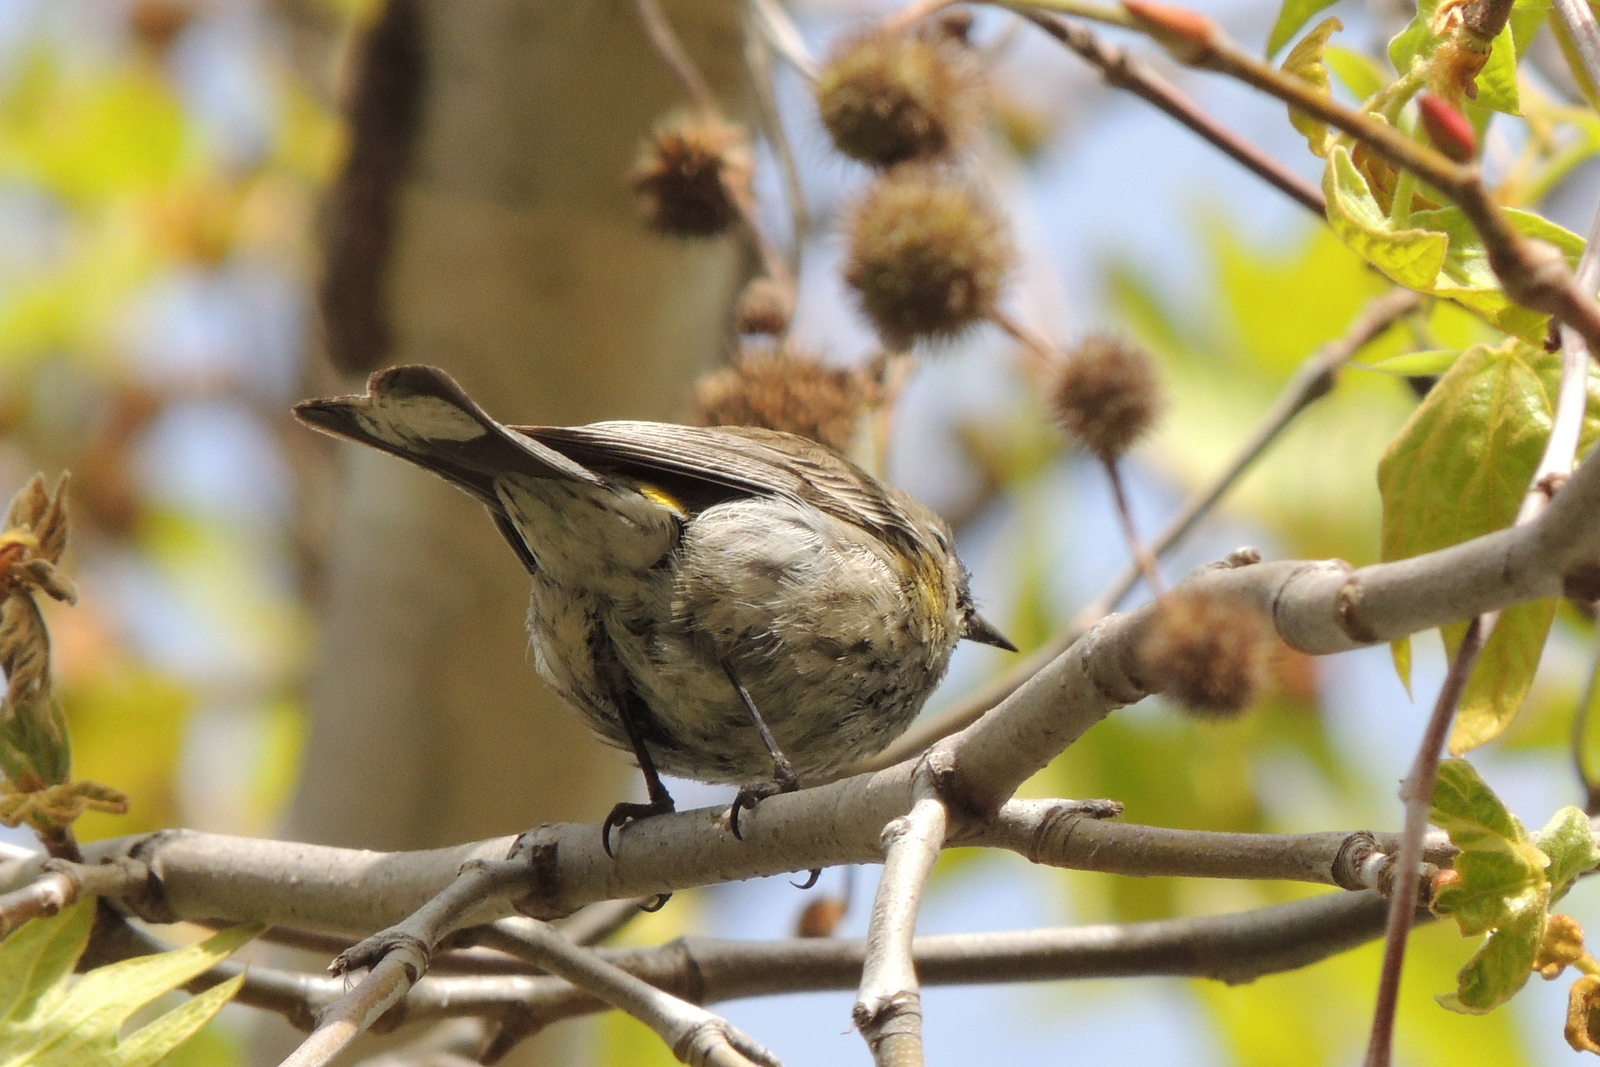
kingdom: Animalia
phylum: Chordata
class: Aves
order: Passeriformes
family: Parulidae
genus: Setophaga
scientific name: Setophaga coronata
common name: Myrtle warbler
